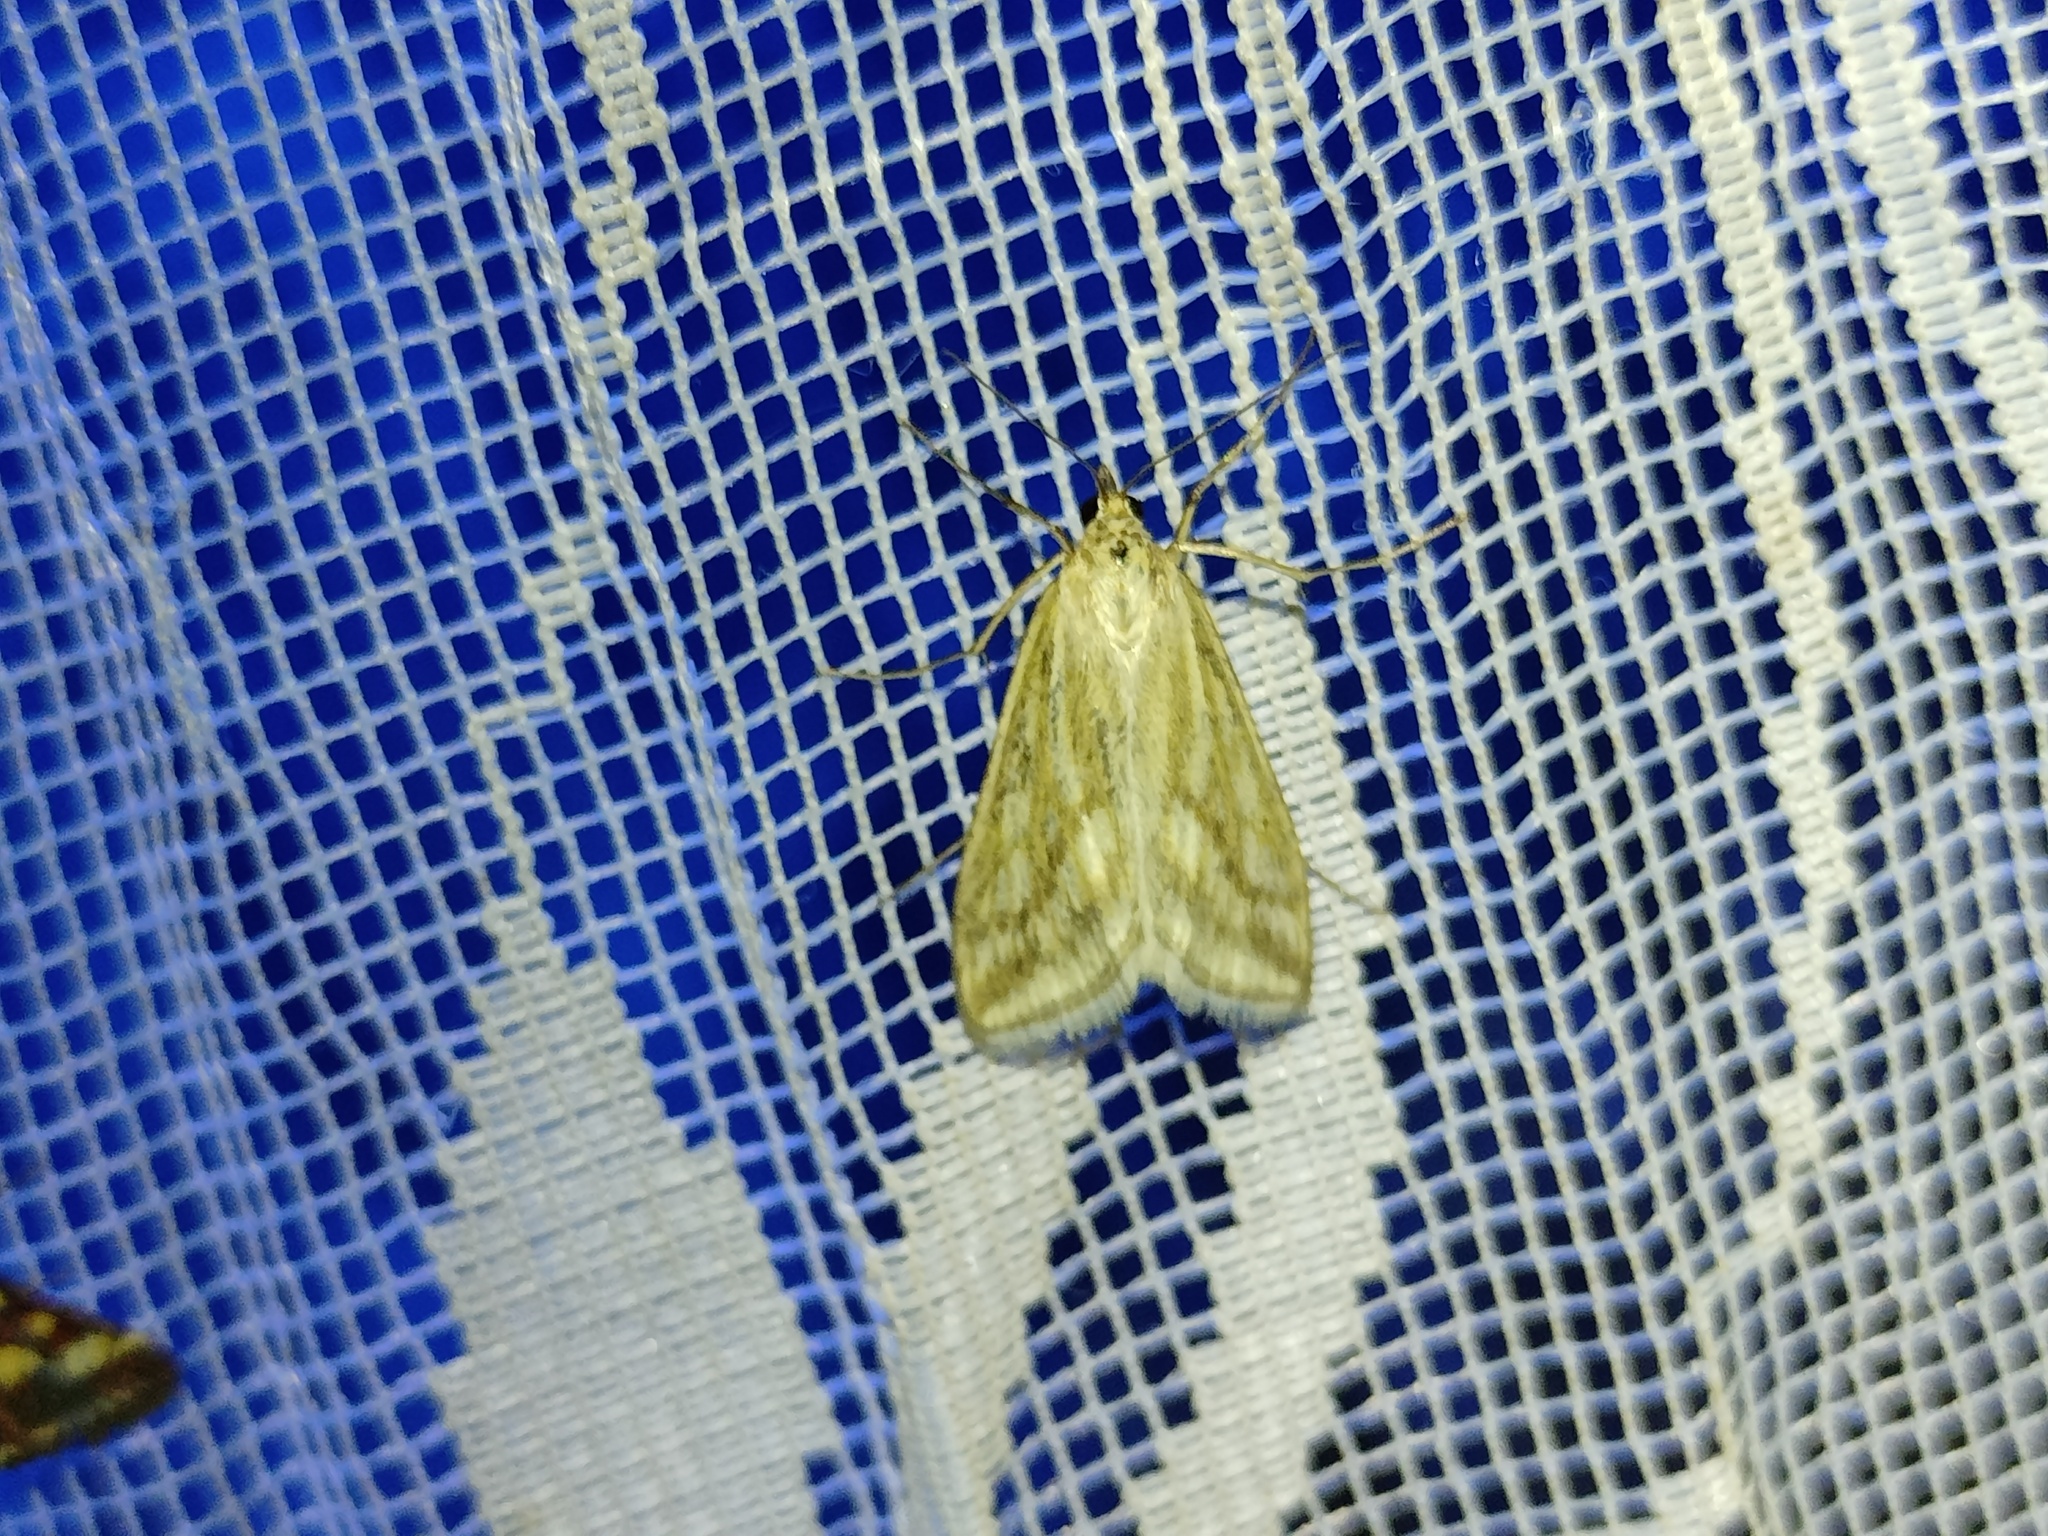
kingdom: Animalia
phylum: Arthropoda
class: Insecta
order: Lepidoptera
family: Crambidae
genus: Loxostege
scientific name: Loxostege virescalis
